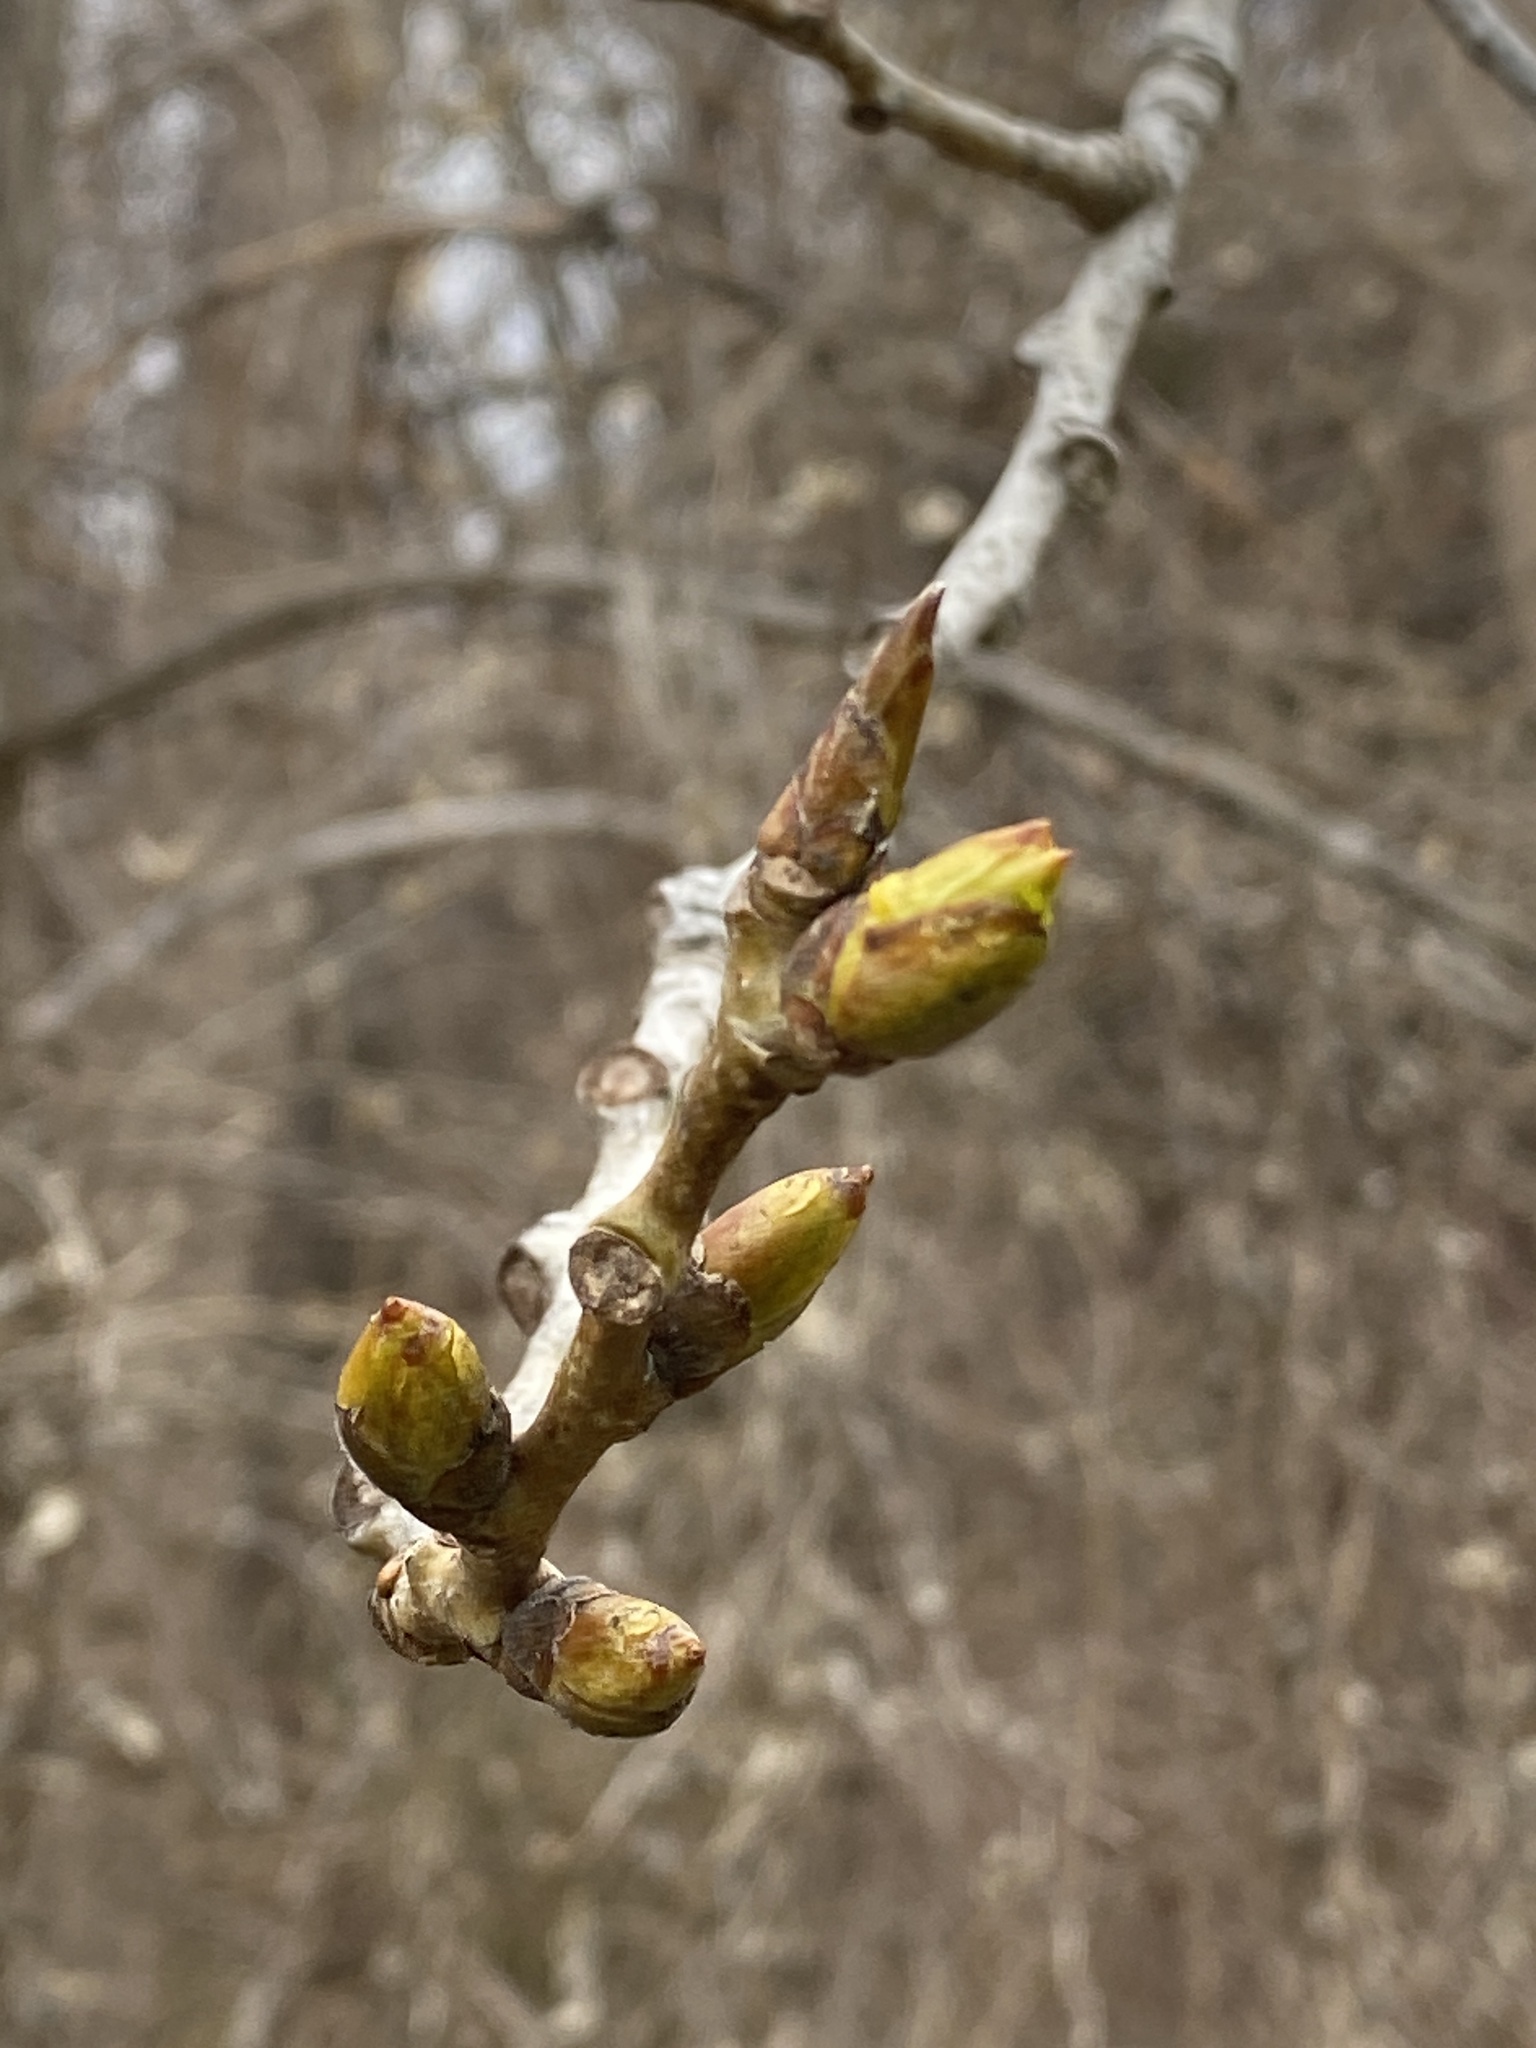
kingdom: Plantae
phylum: Tracheophyta
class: Magnoliopsida
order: Malpighiales
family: Salicaceae
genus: Populus
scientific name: Populus deltoides
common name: Eastern cottonwood
